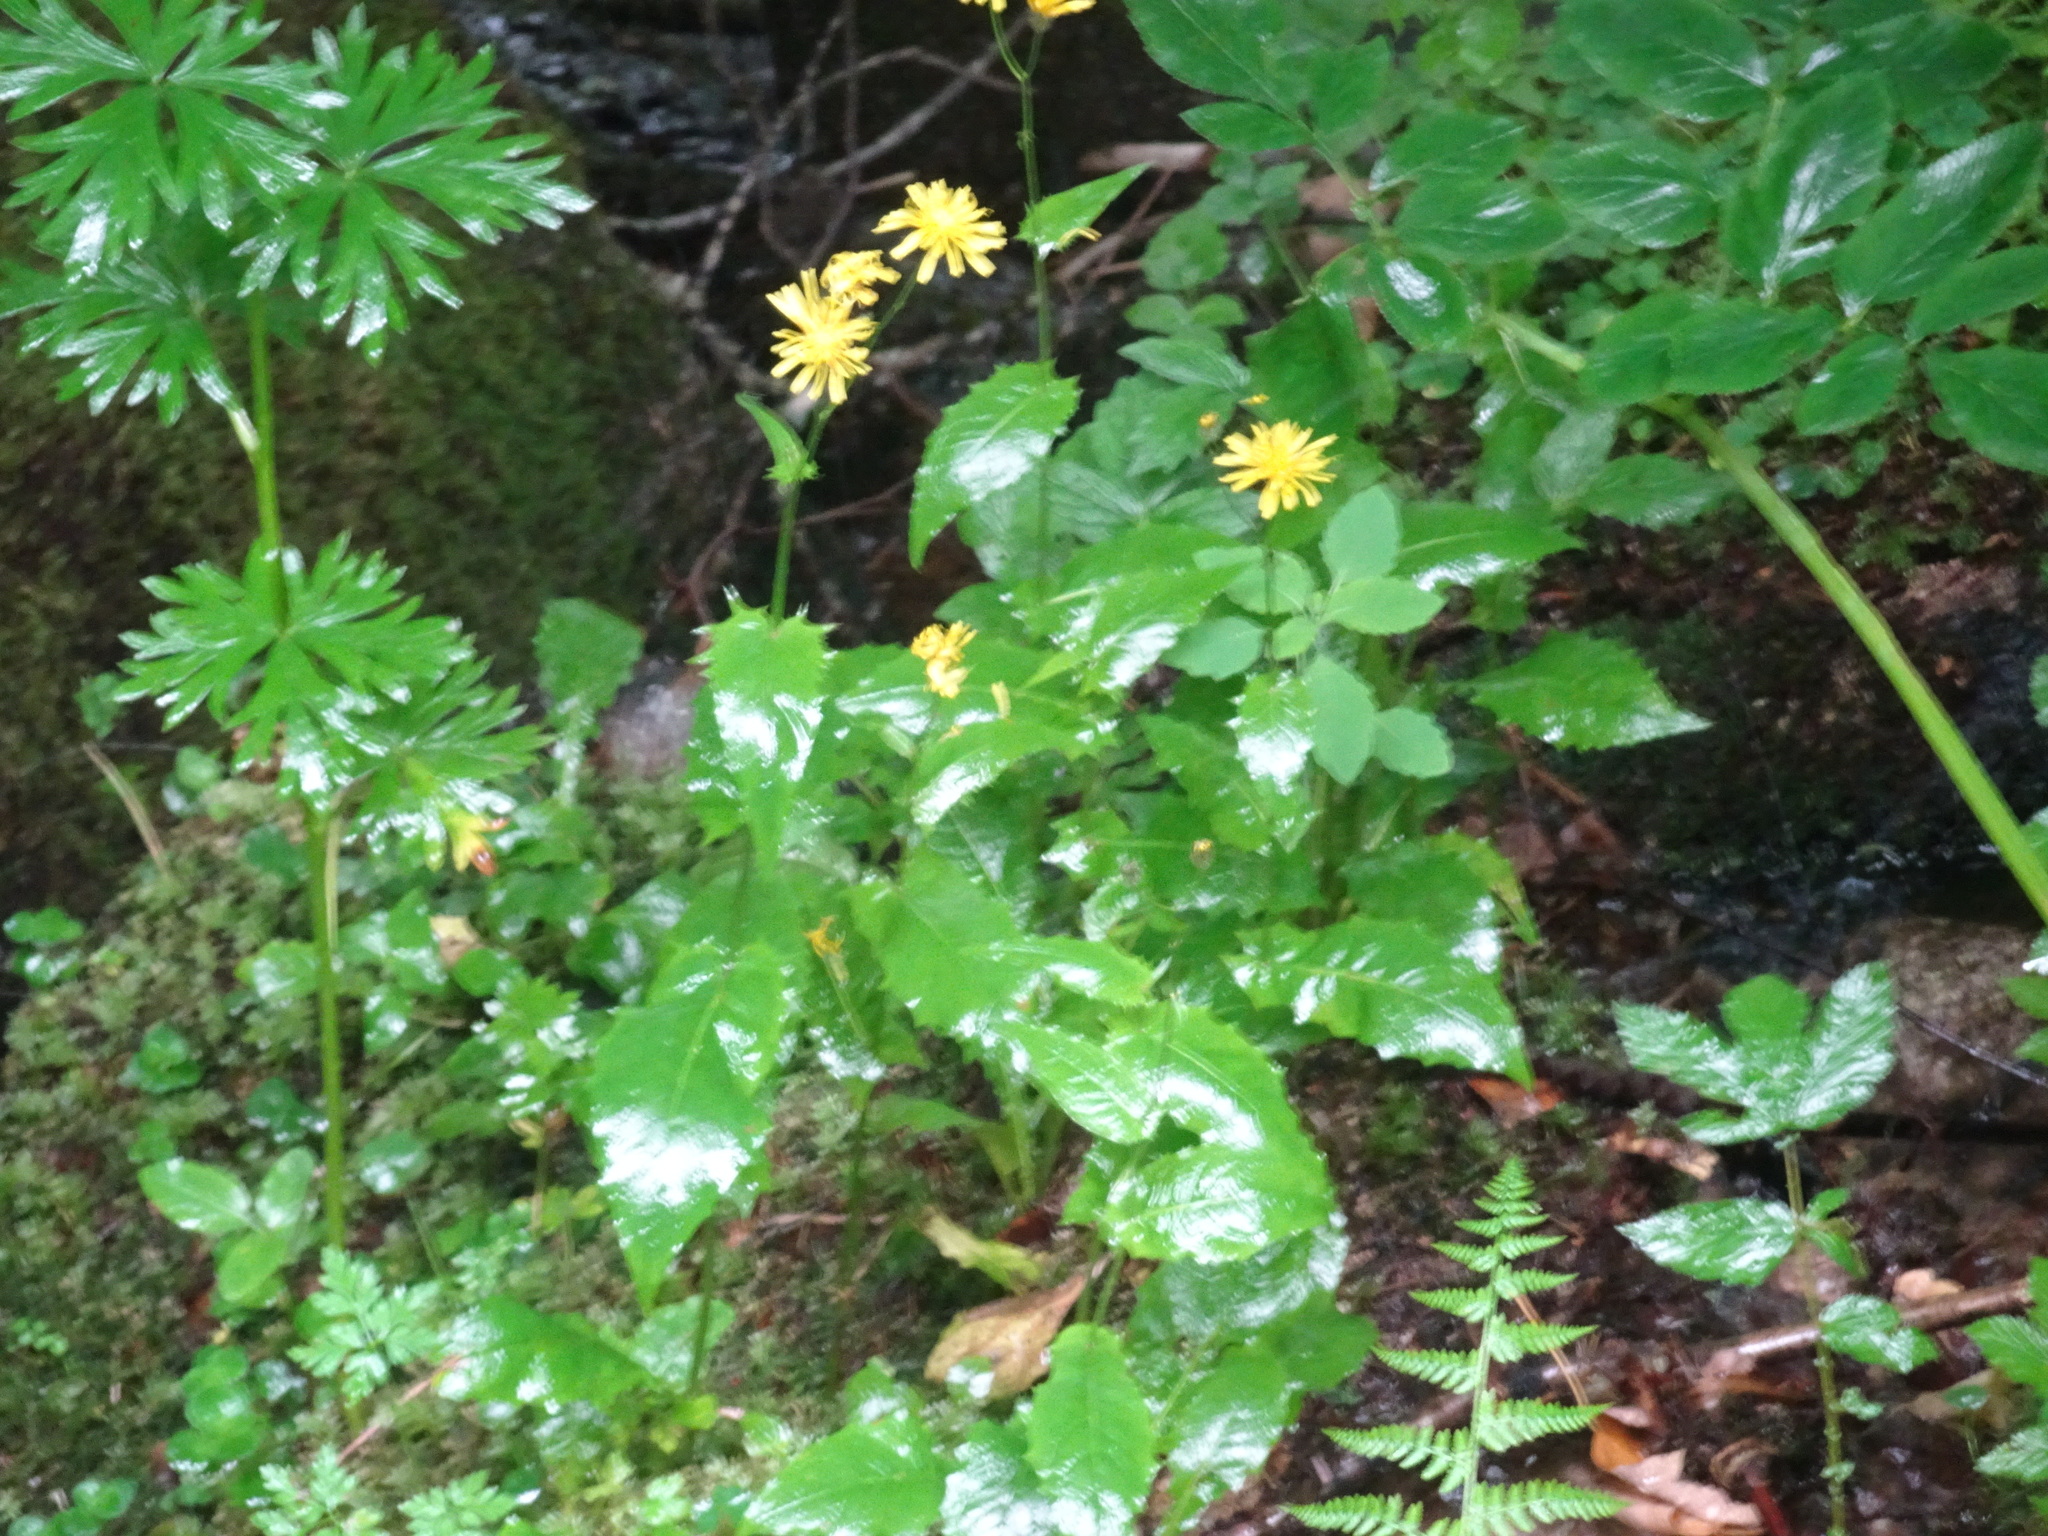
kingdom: Plantae
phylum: Tracheophyta
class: Magnoliopsida
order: Asterales
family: Asteraceae
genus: Crepis
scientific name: Crepis paludosa
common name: Marsh hawk's-beard
